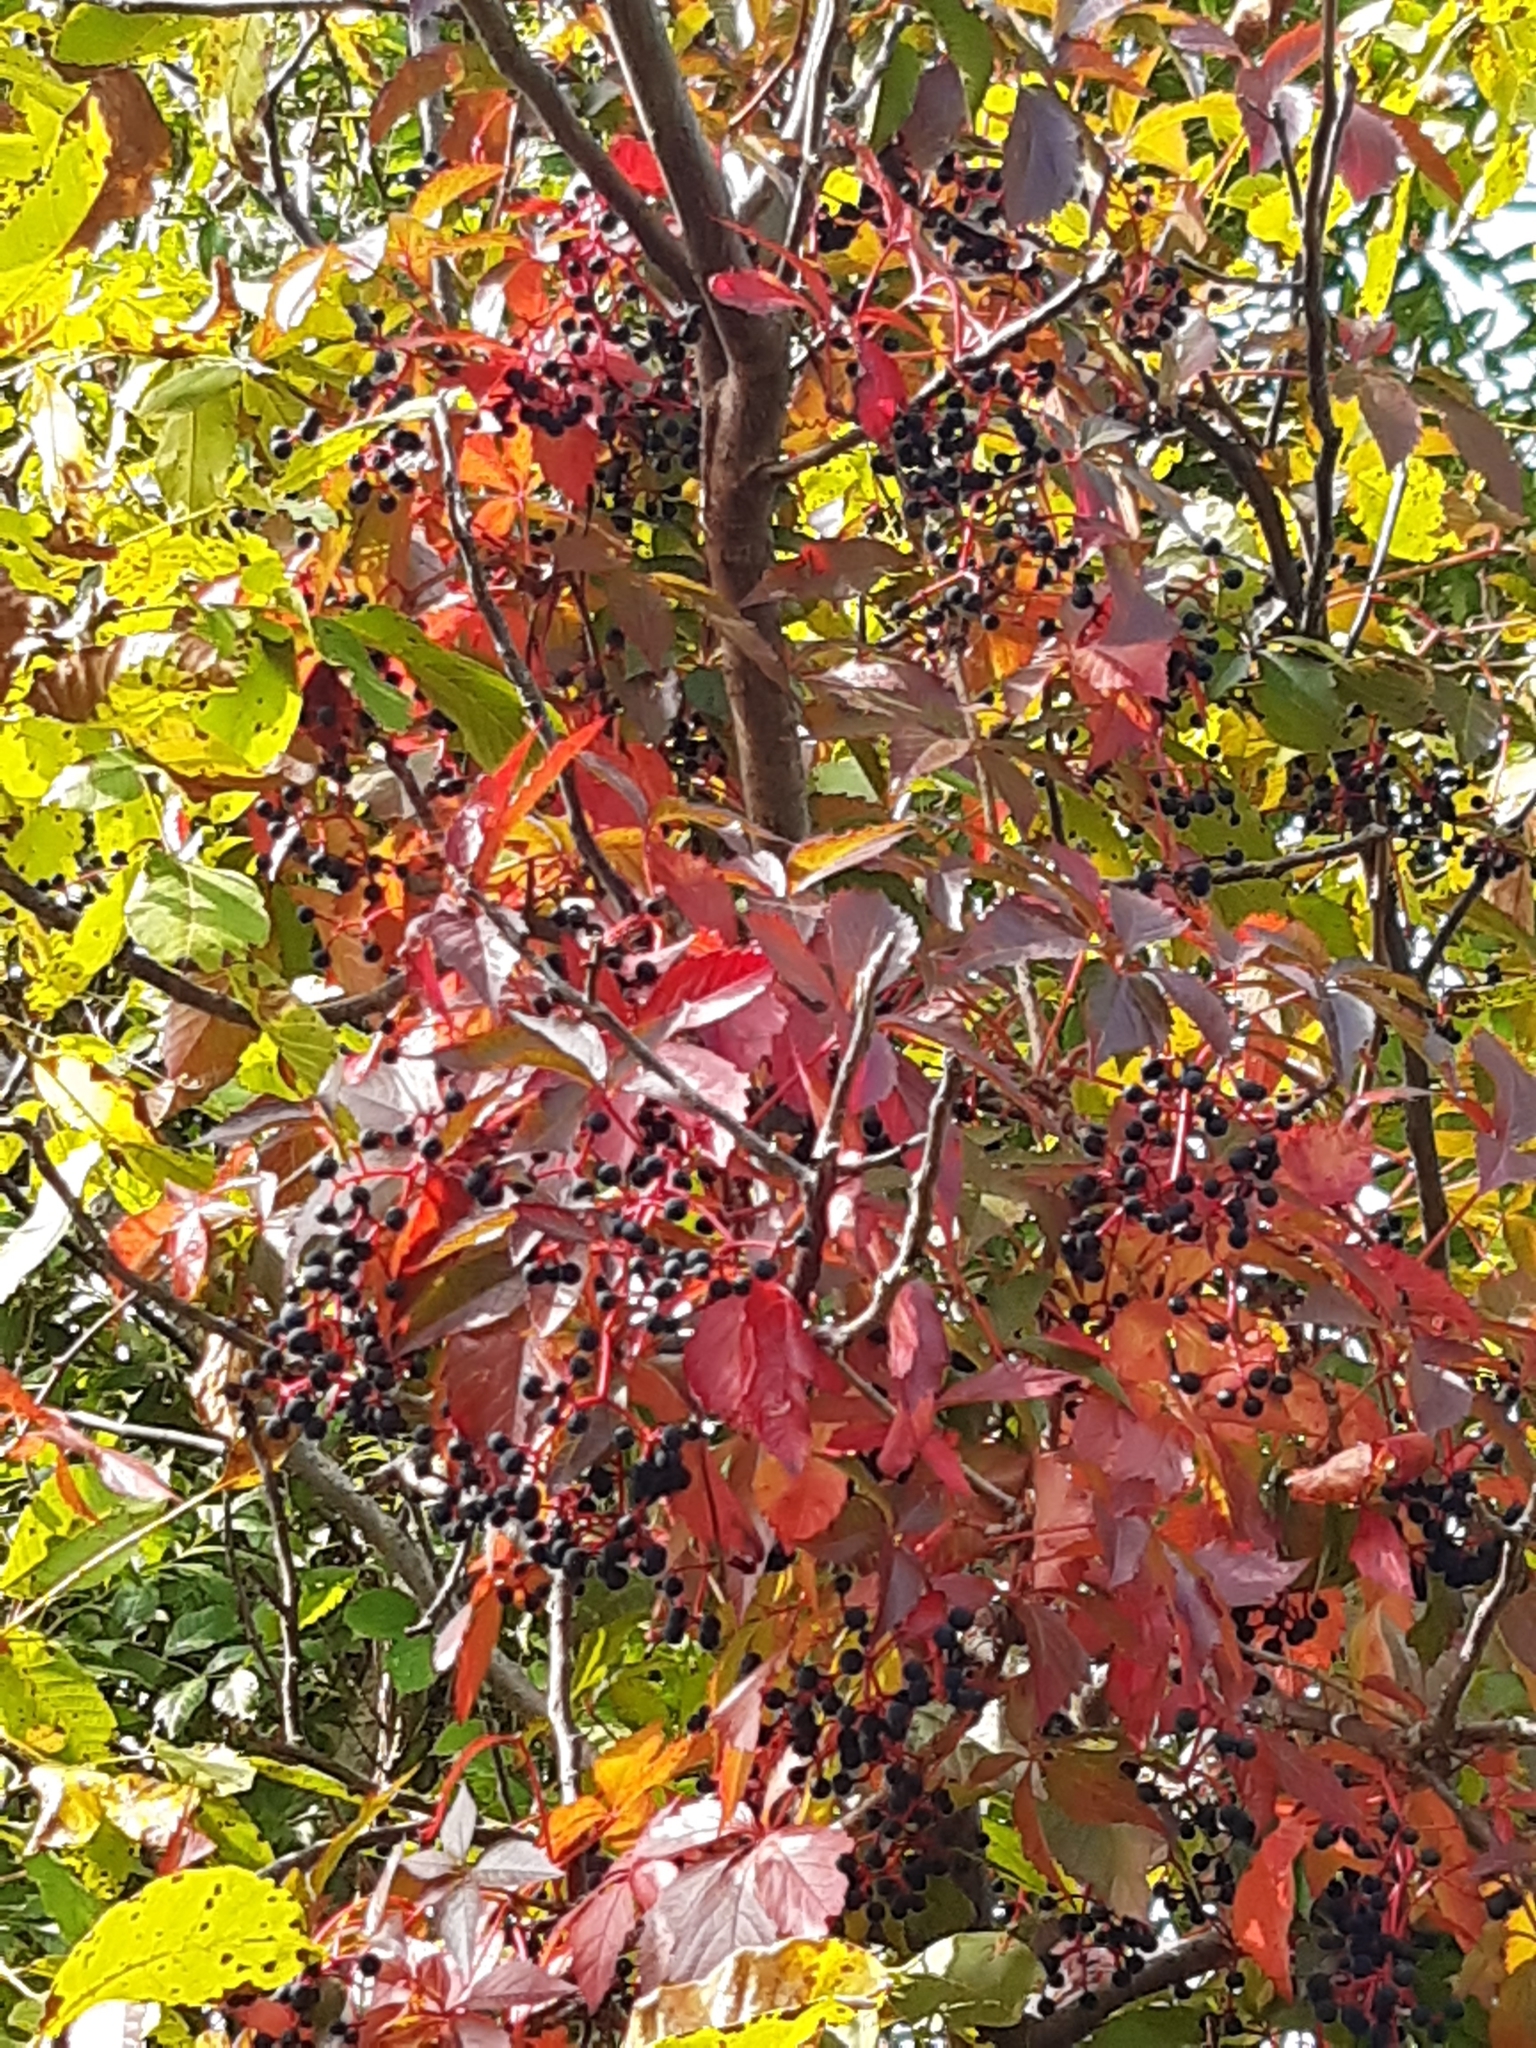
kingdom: Plantae
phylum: Tracheophyta
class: Magnoliopsida
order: Vitales
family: Vitaceae
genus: Parthenocissus
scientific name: Parthenocissus inserta
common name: False virginia-creeper
